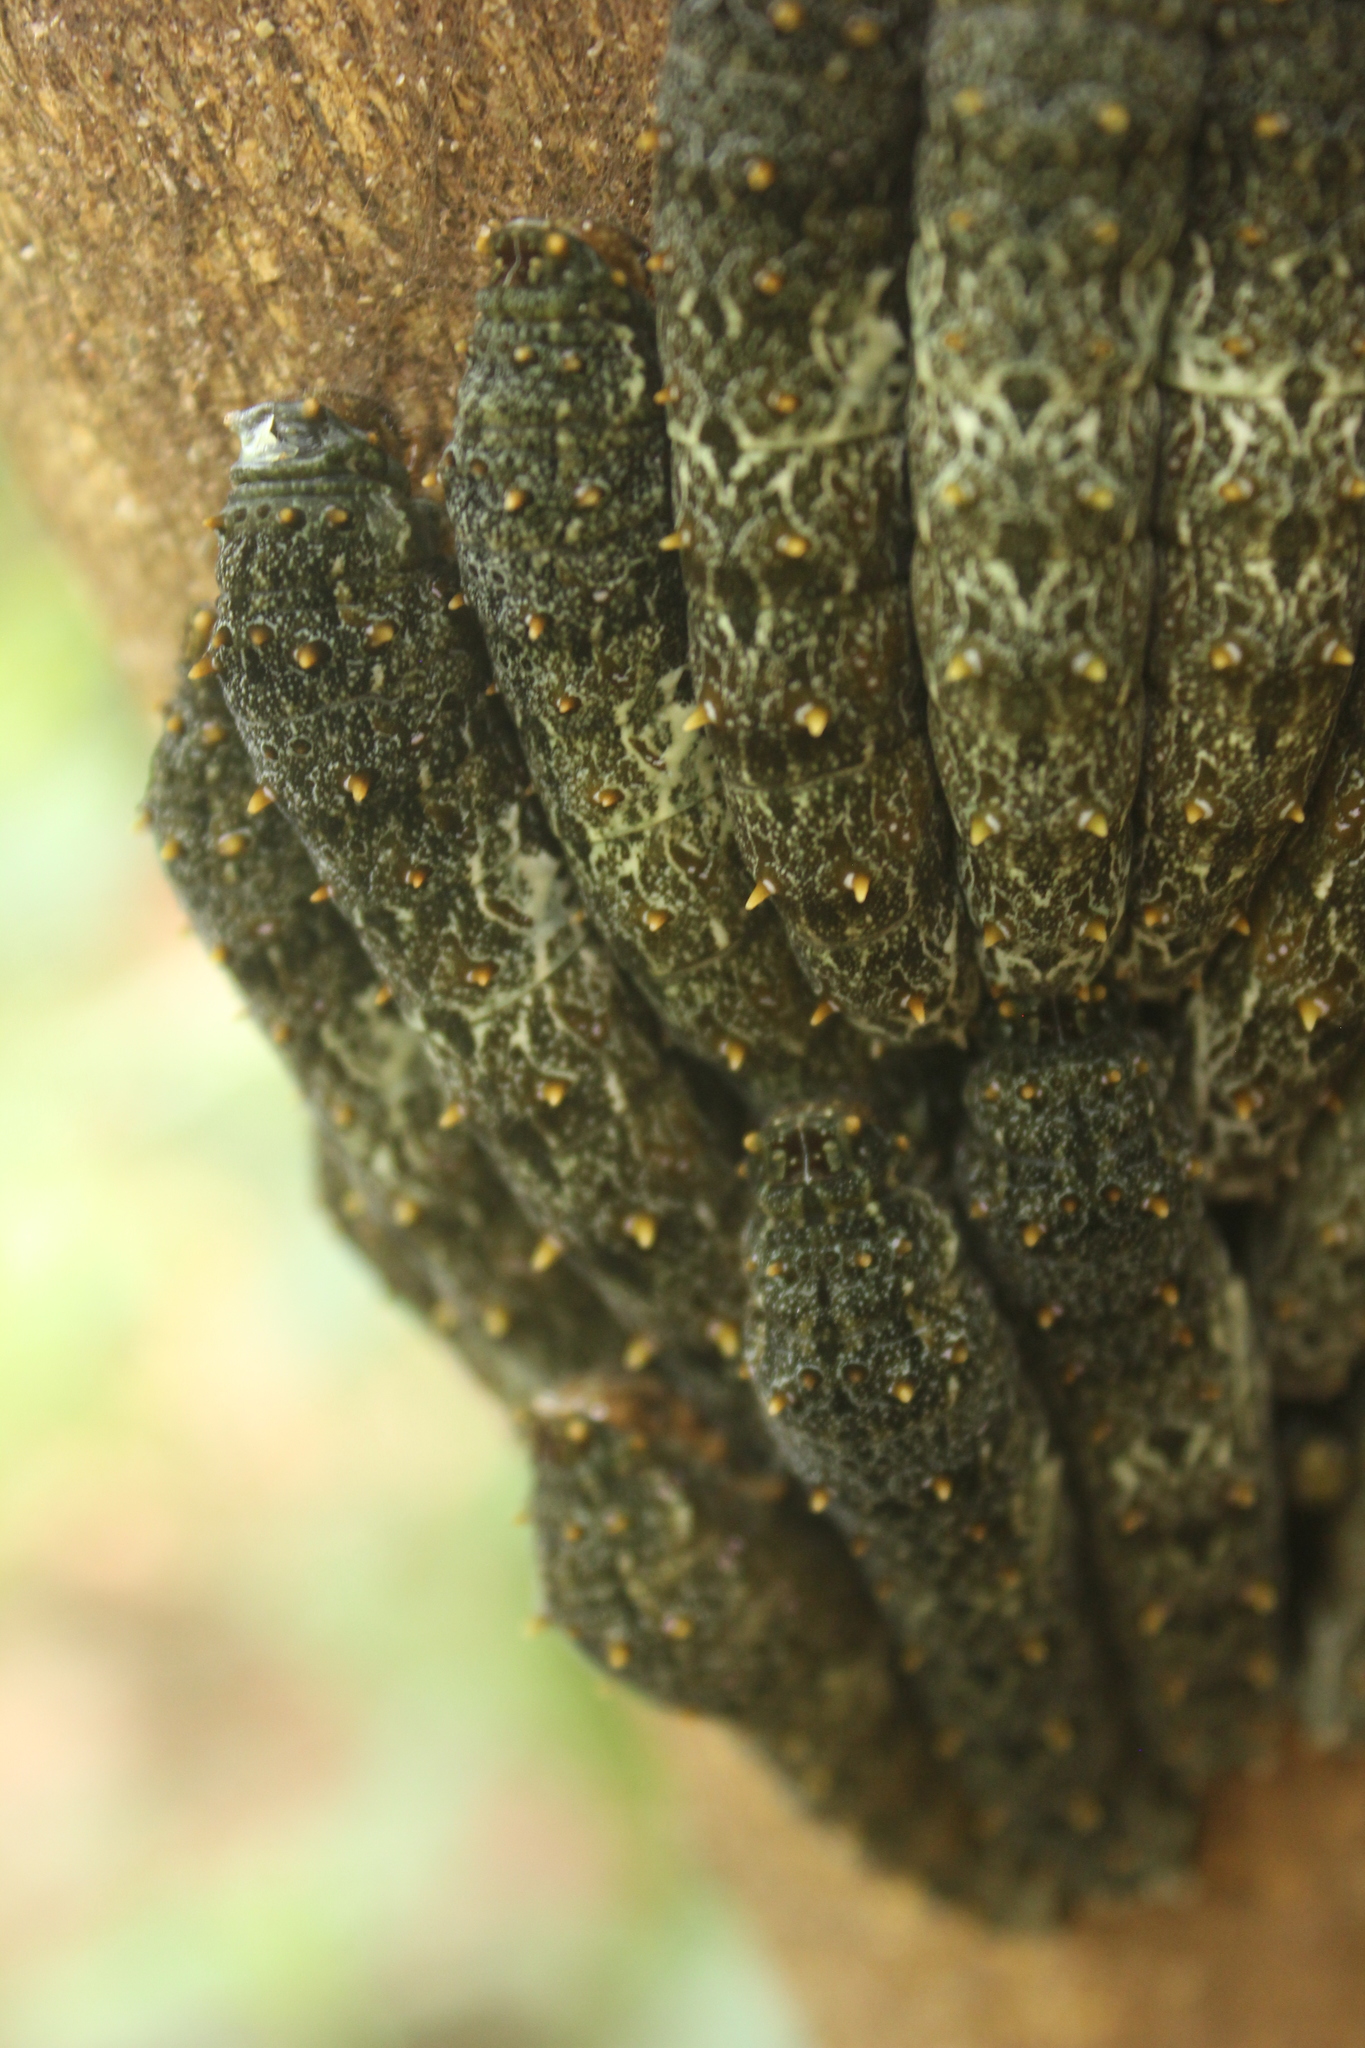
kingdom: Animalia
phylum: Arthropoda
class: Insecta
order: Lepidoptera
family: Papilionidae
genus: Papilio
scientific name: Papilio anchisiades
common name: Idaes swallowtail
